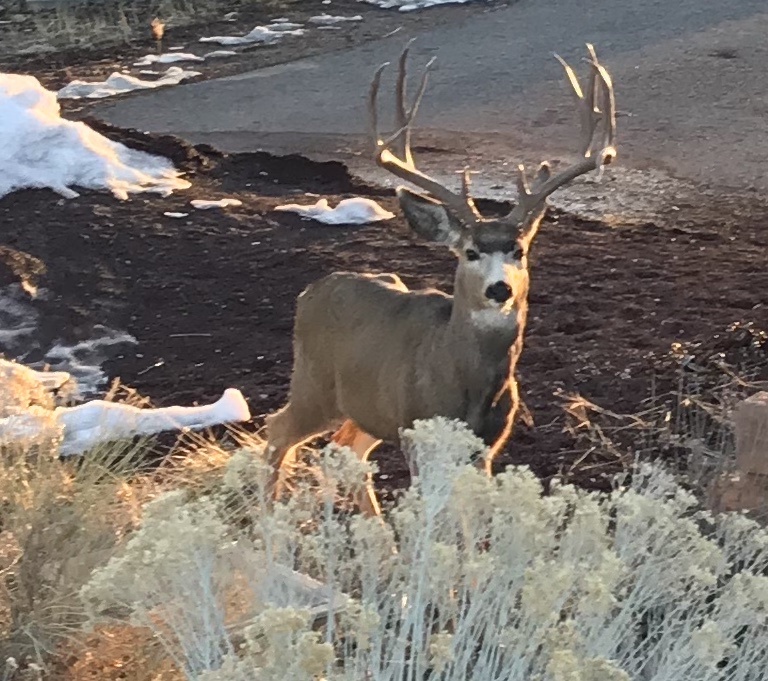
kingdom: Animalia
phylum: Chordata
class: Mammalia
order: Artiodactyla
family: Cervidae
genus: Odocoileus
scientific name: Odocoileus hemionus
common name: Mule deer
